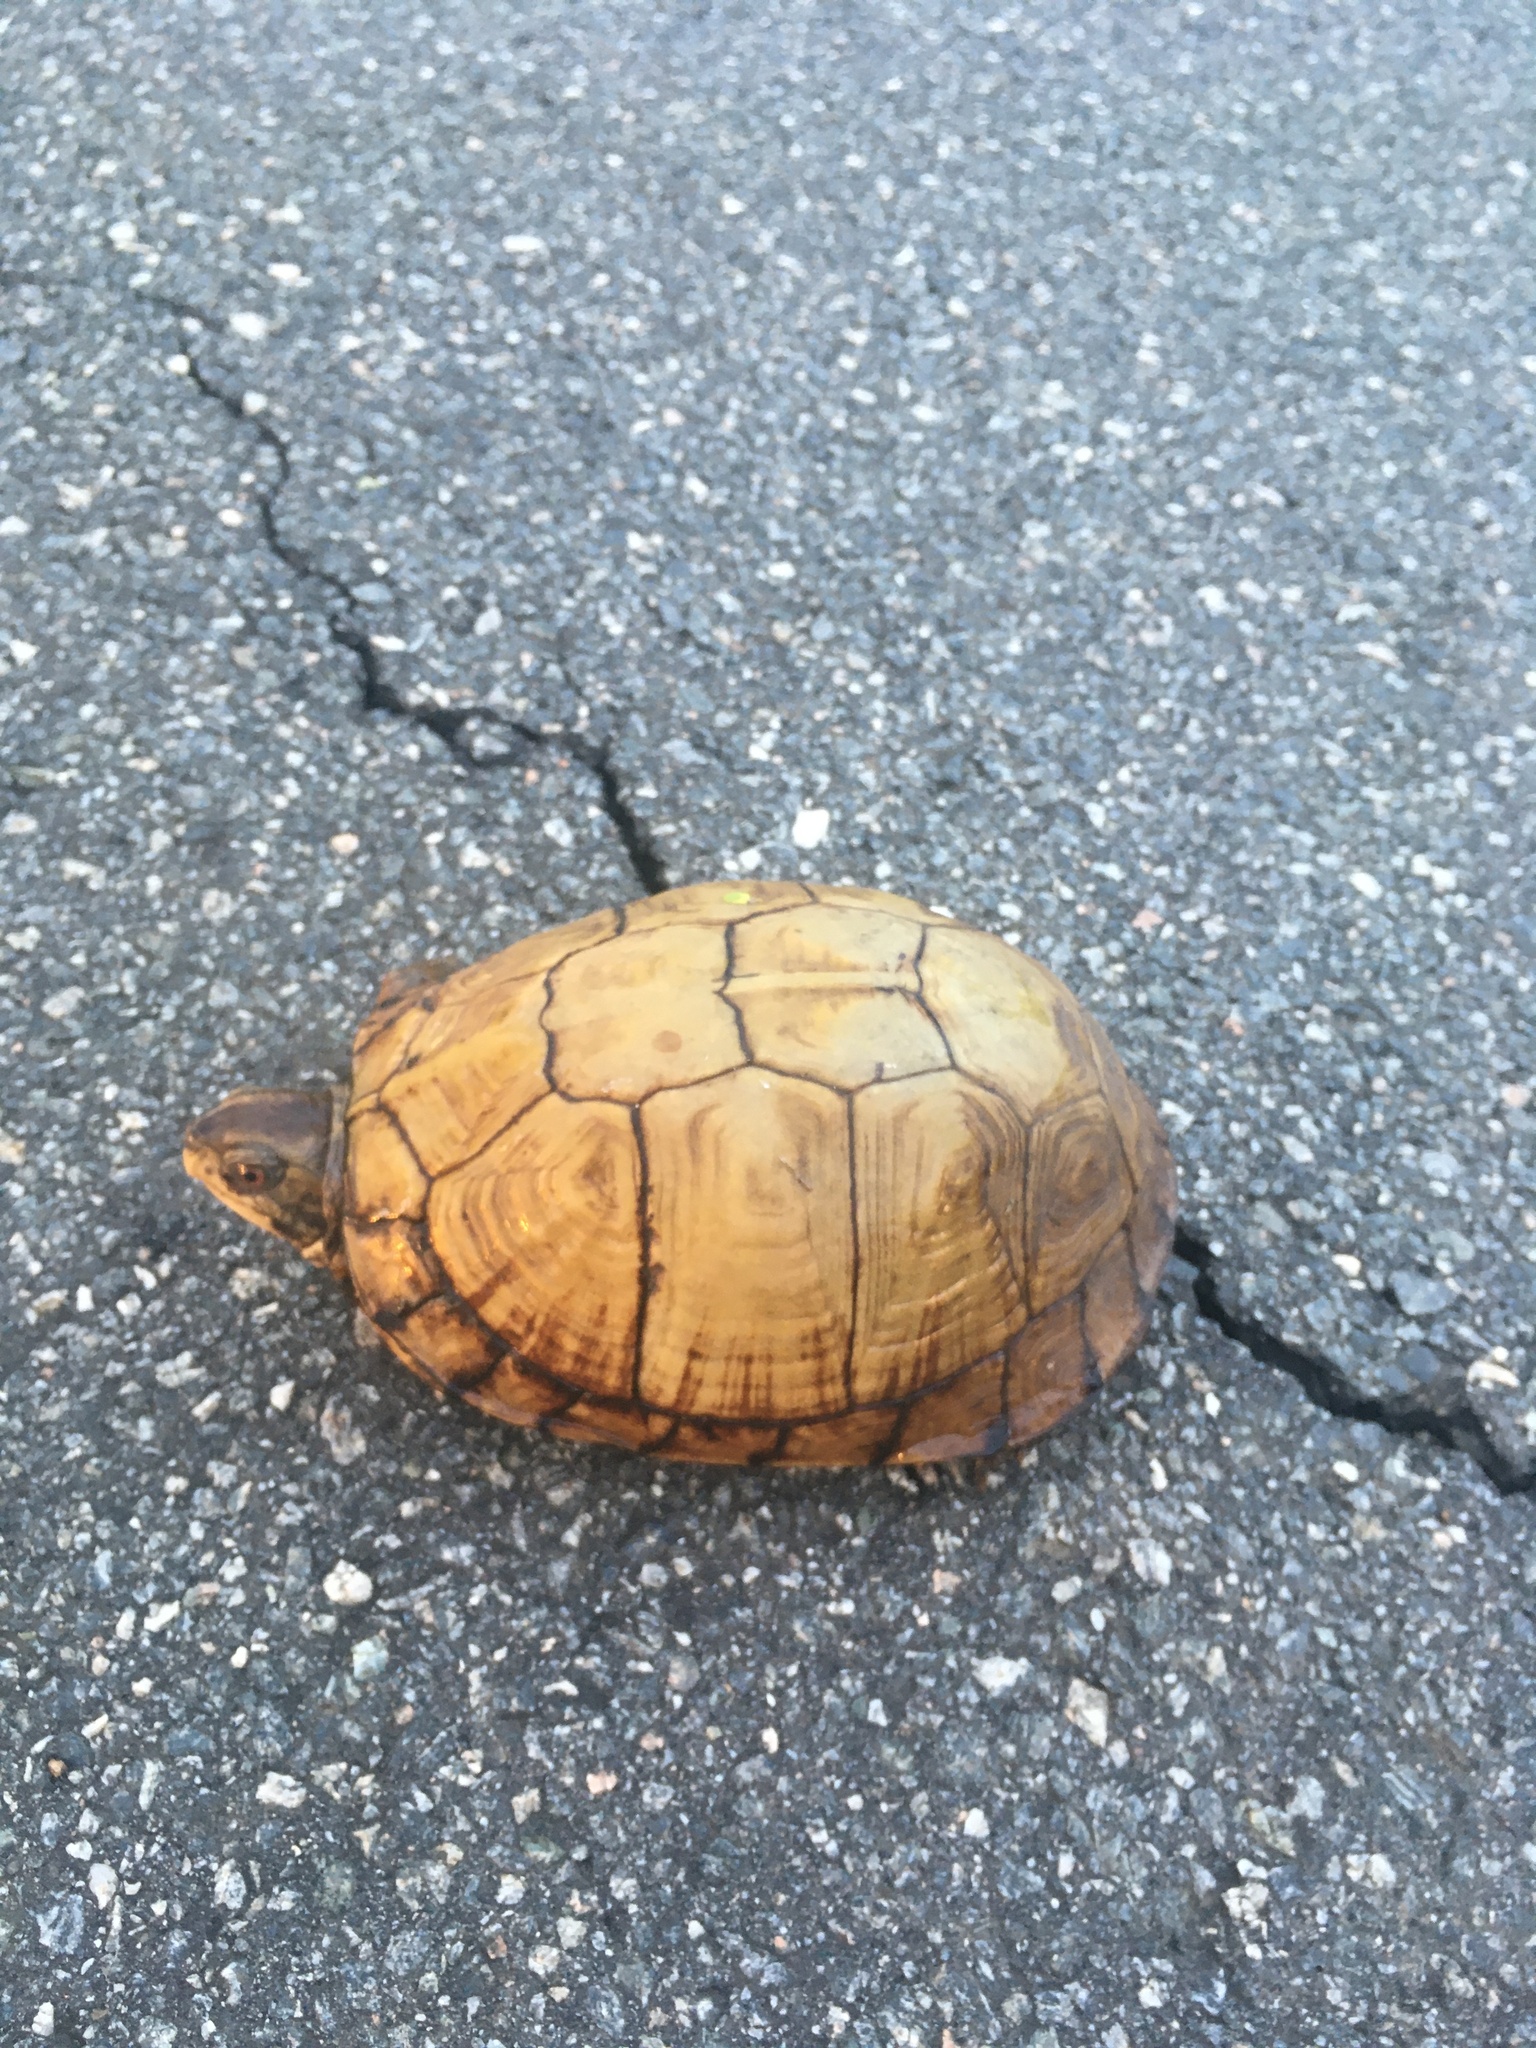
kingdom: Animalia
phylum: Chordata
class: Testudines
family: Emydidae
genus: Terrapene
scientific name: Terrapene carolina
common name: Common box turtle
